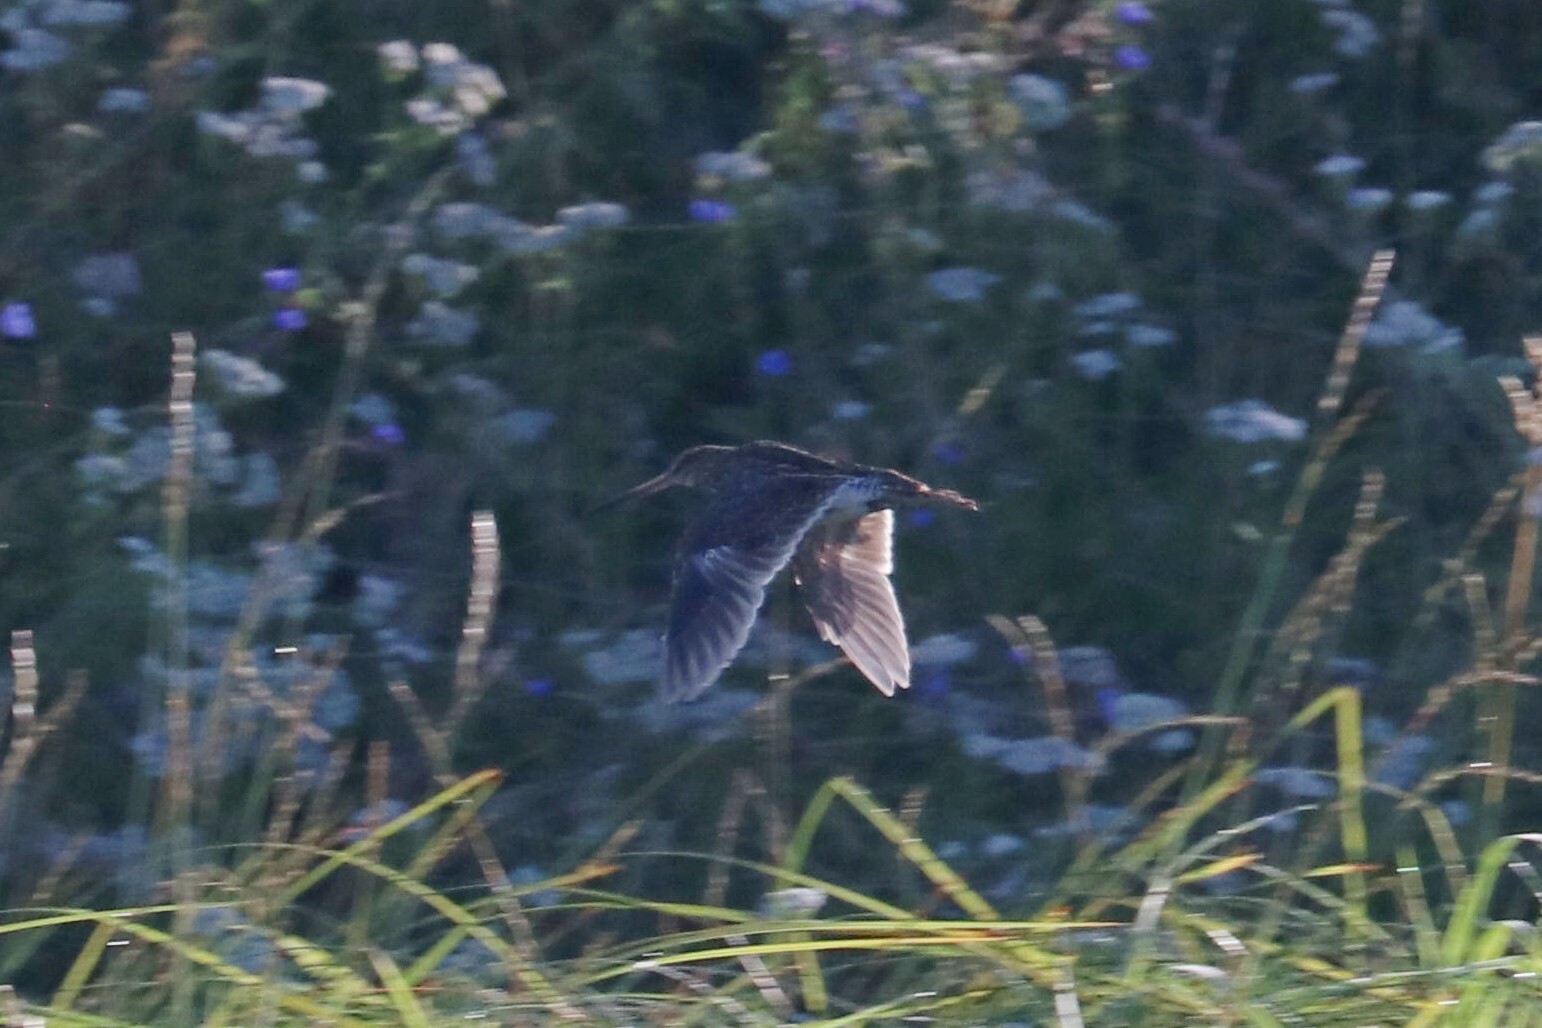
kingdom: Animalia
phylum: Chordata
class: Aves
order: Charadriiformes
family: Scolopacidae
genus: Gallinago
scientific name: Gallinago gallinago
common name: Common snipe
